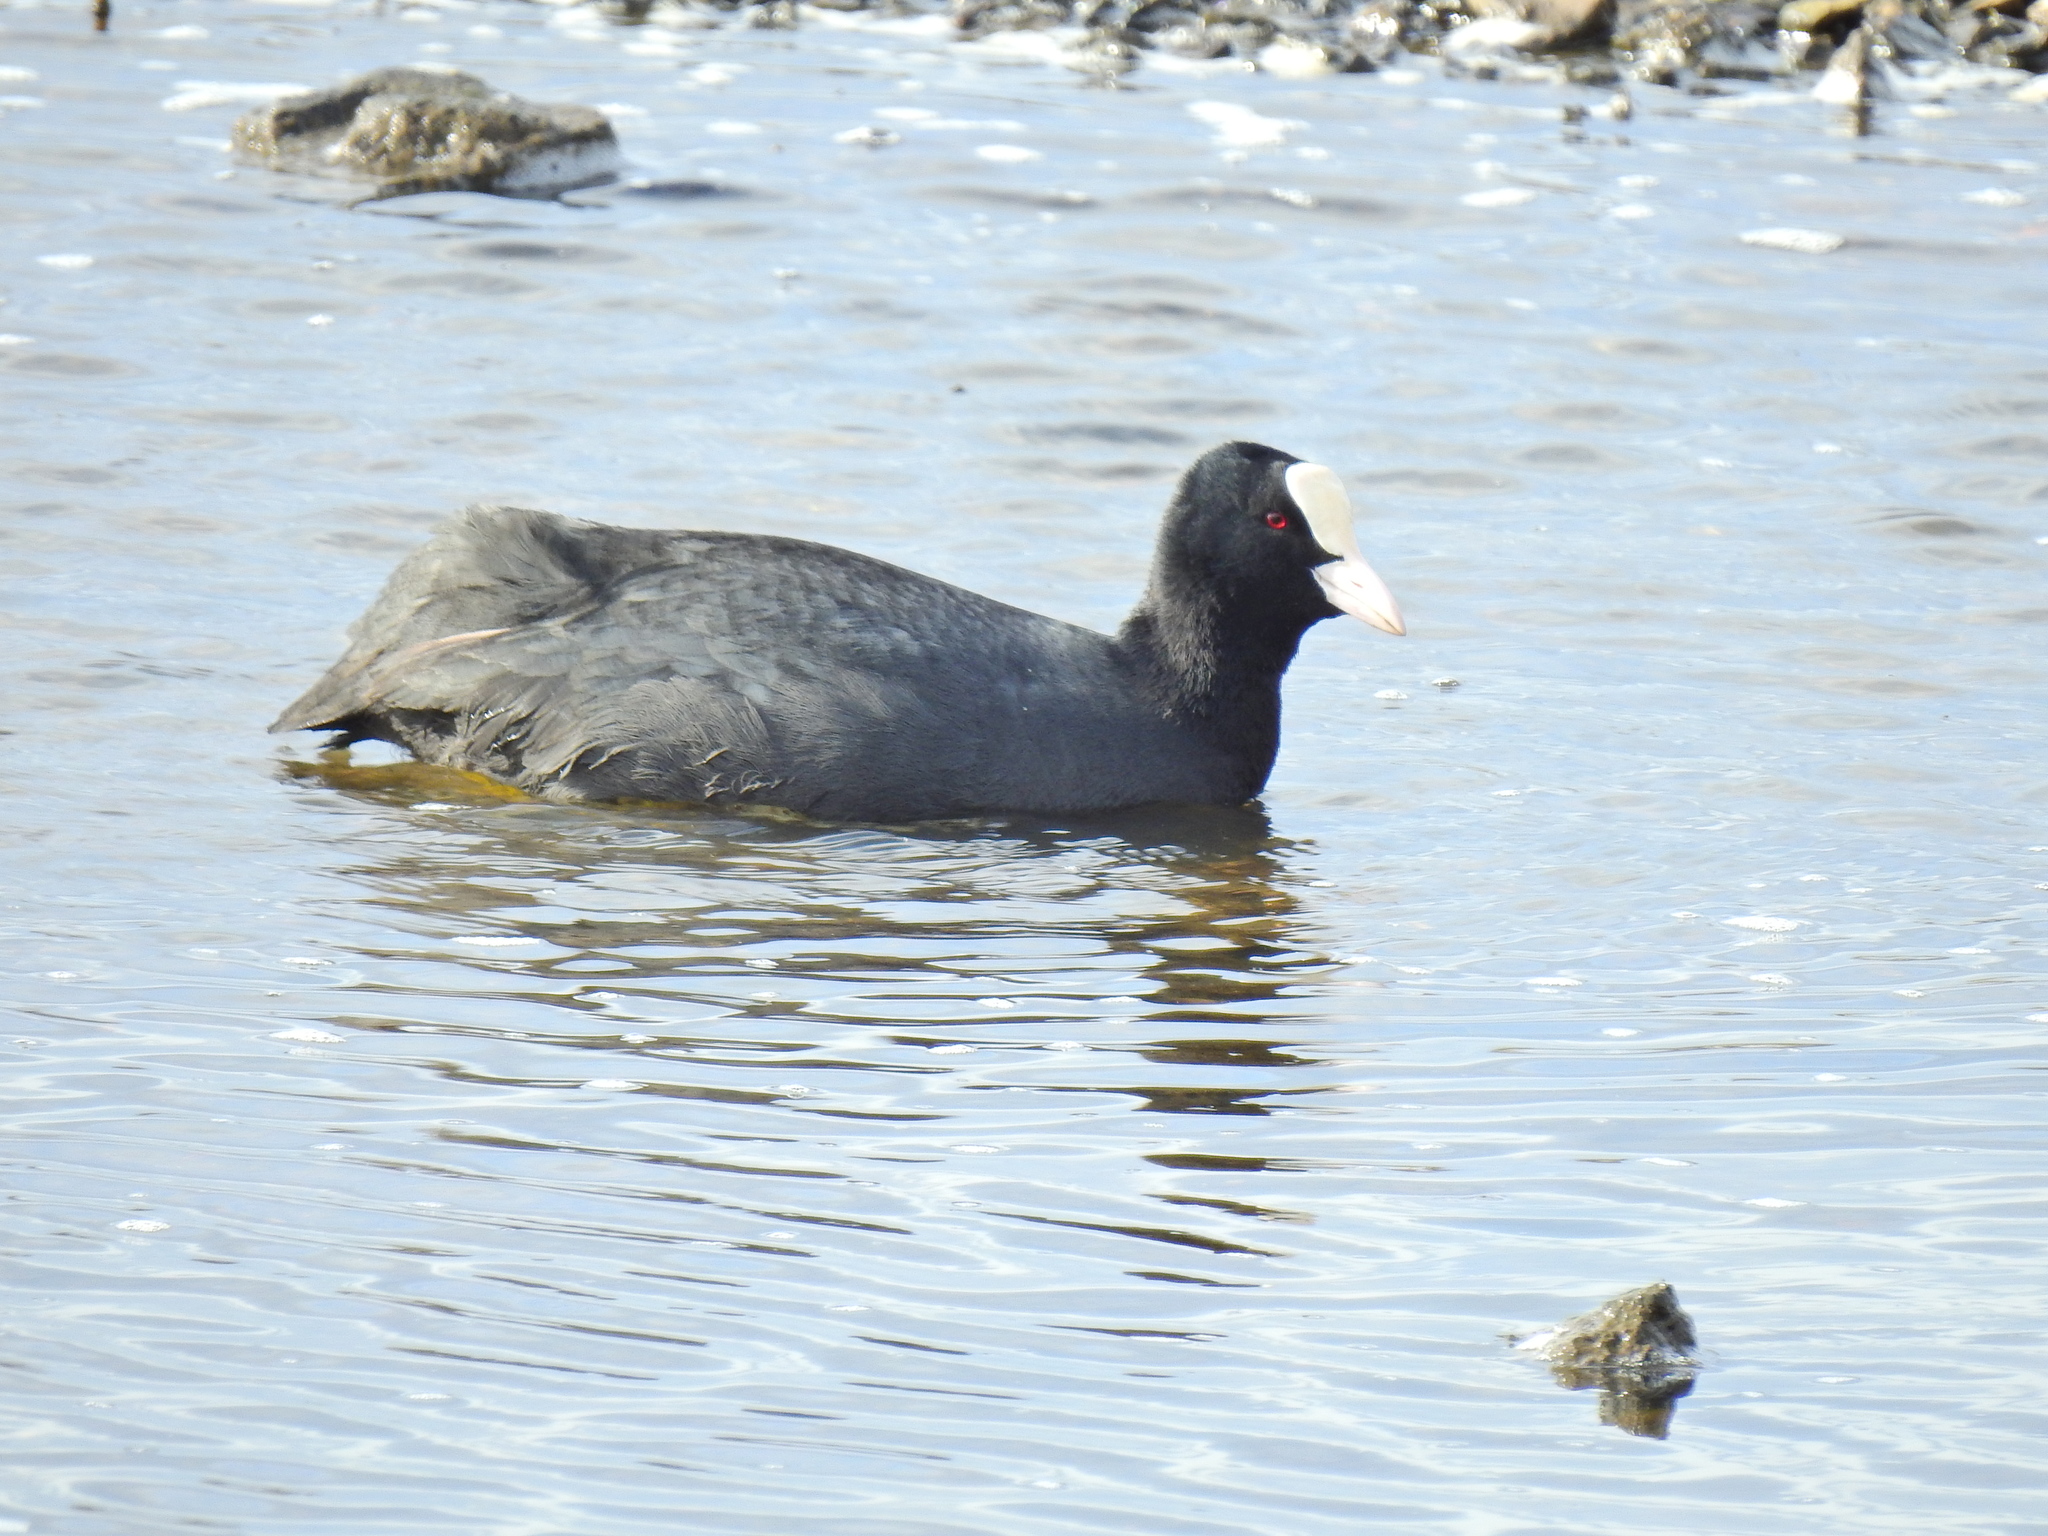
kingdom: Animalia
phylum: Chordata
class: Aves
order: Gruiformes
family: Rallidae
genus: Fulica
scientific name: Fulica atra
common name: Eurasian coot
